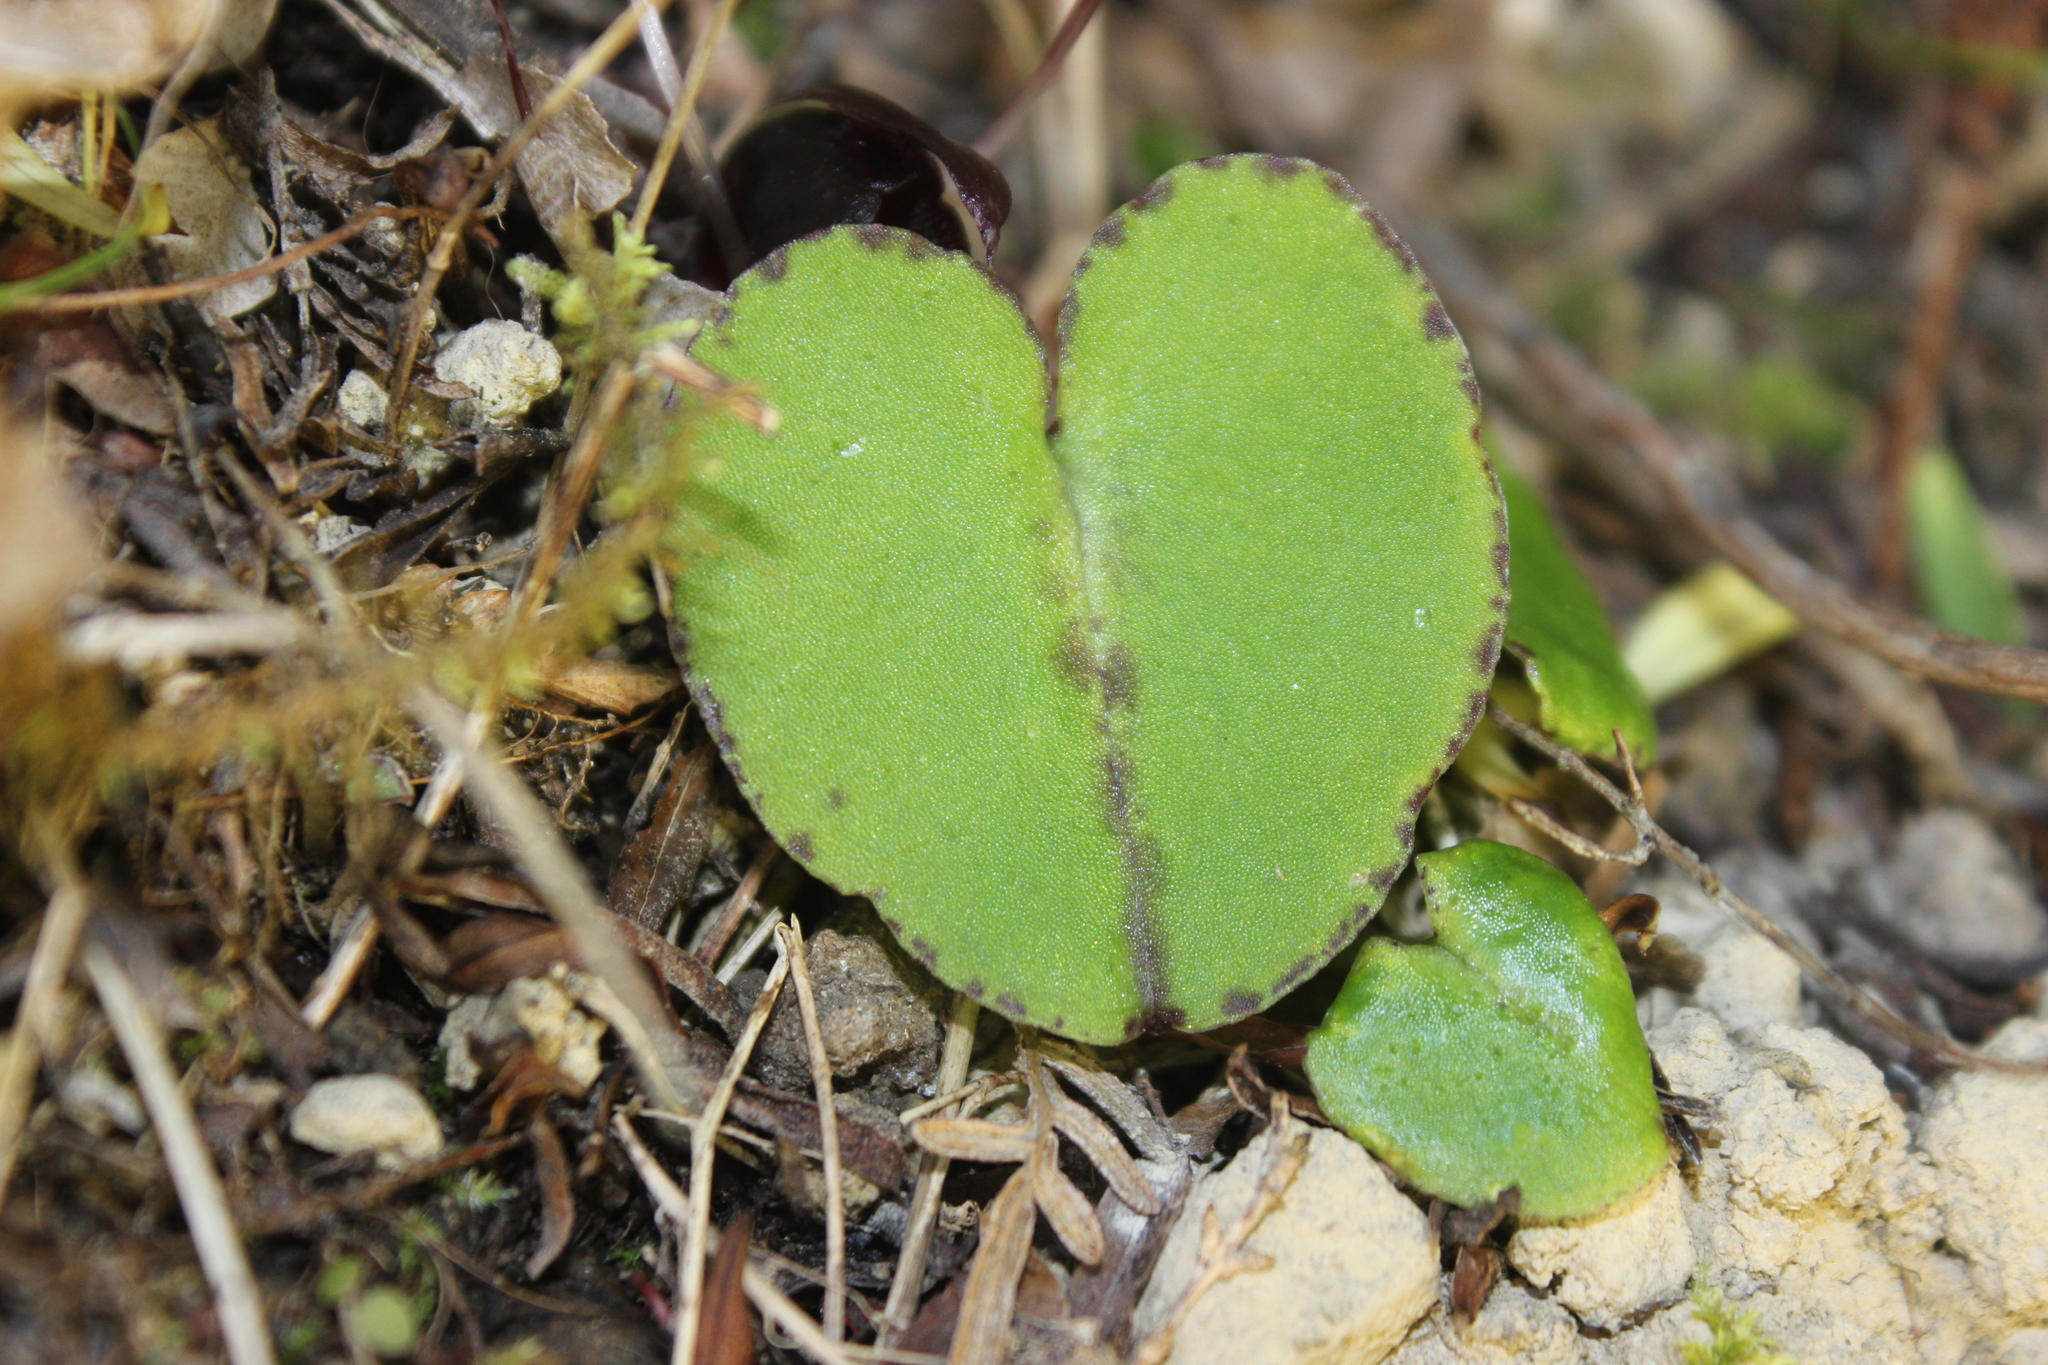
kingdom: Plantae
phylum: Tracheophyta
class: Liliopsida
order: Asparagales
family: Orchidaceae
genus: Corybas
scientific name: Corybas macranthus
